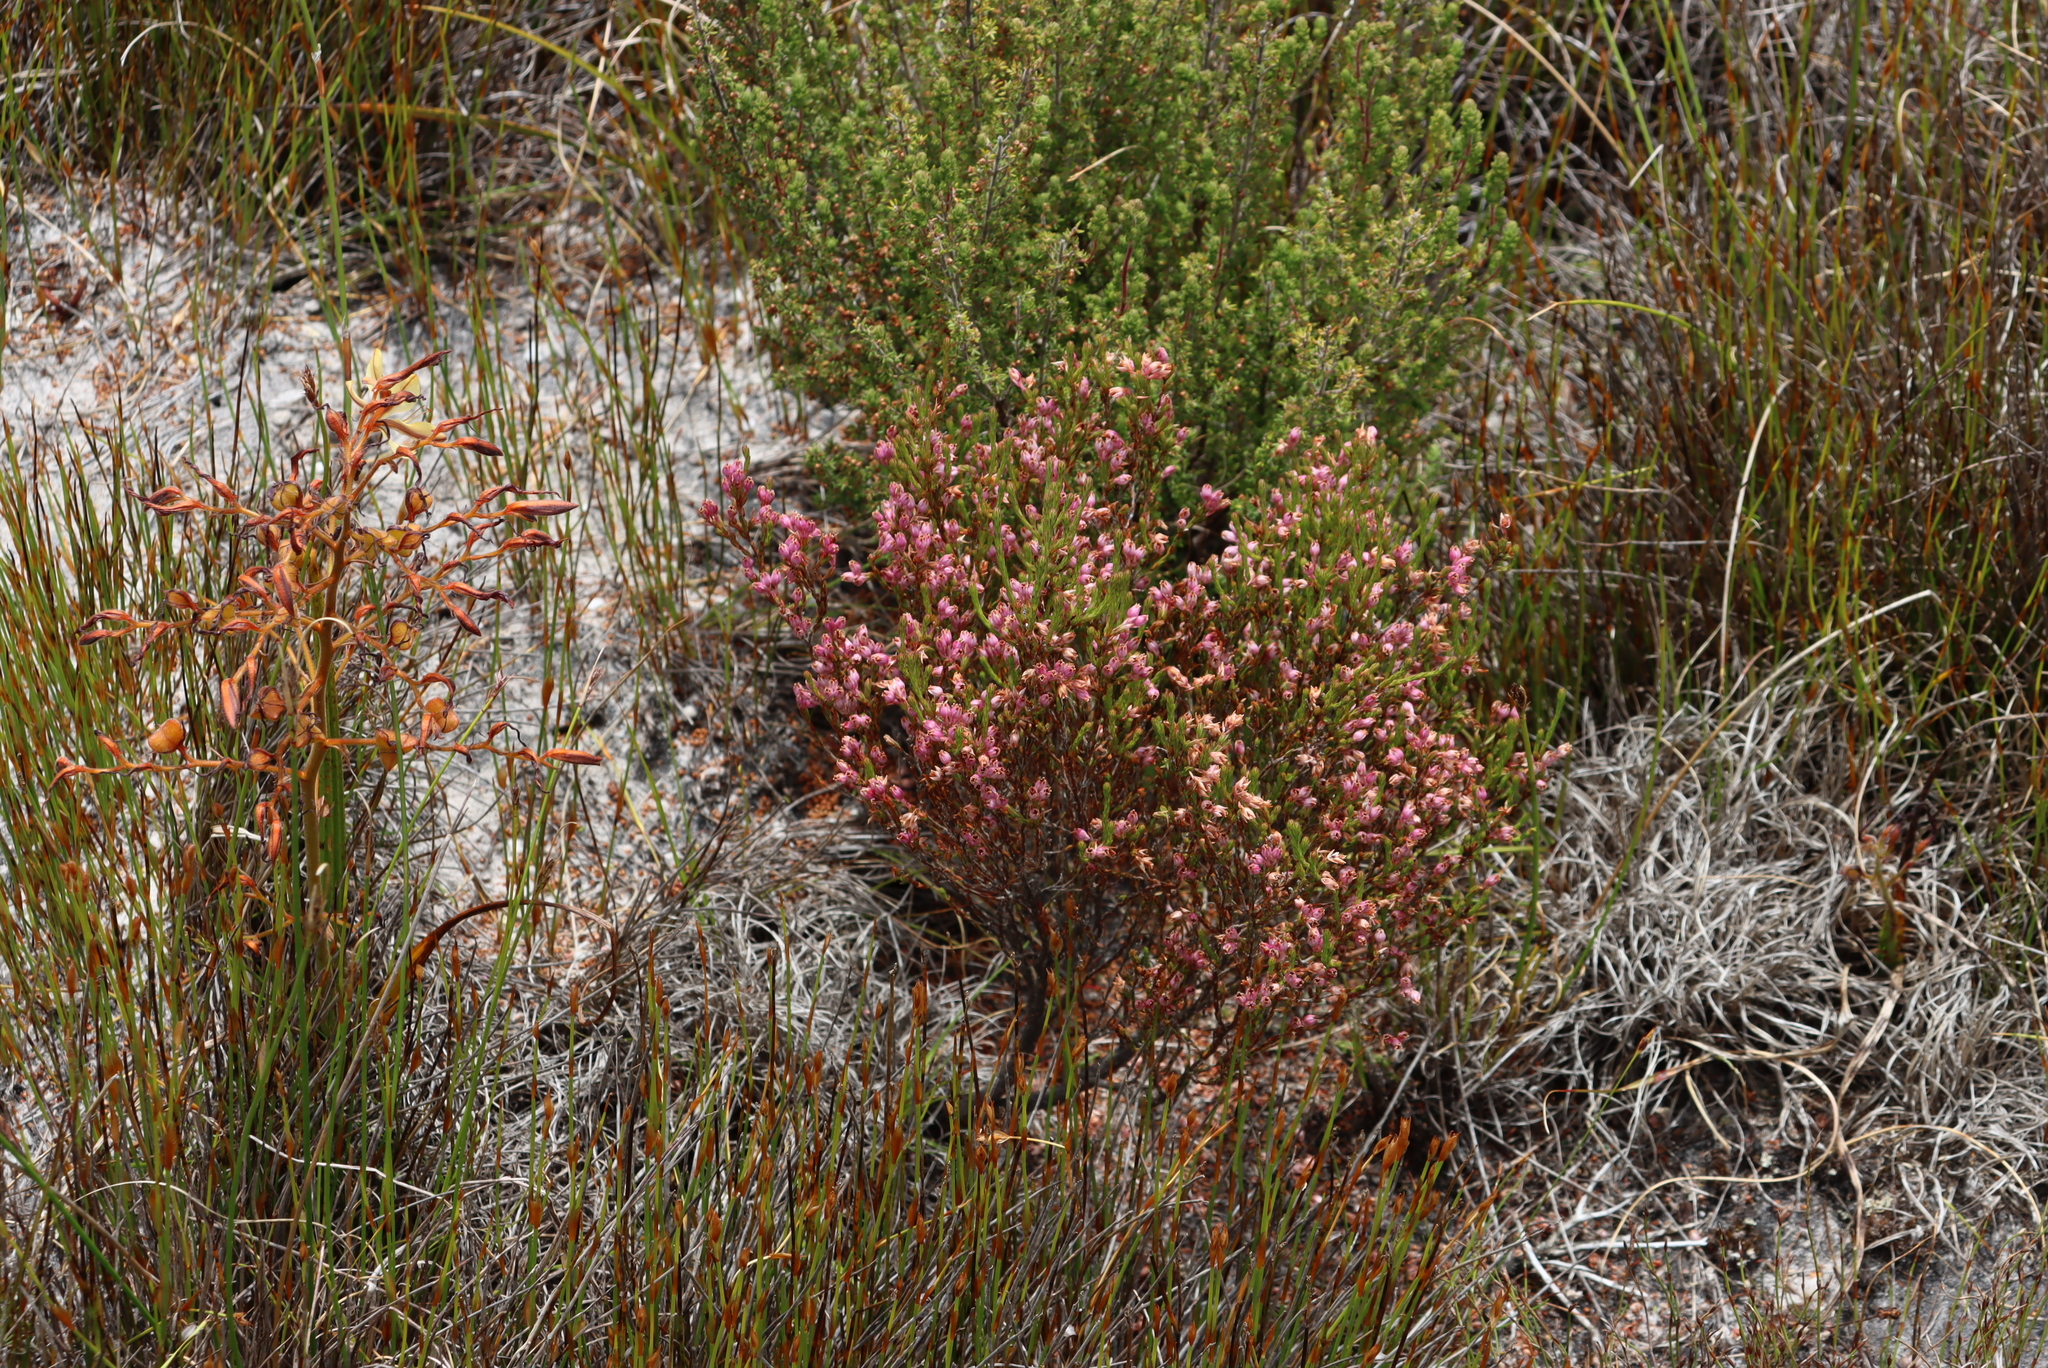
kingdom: Plantae
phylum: Tracheophyta
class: Liliopsida
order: Commelinales
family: Haemodoraceae
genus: Wachendorfia
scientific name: Wachendorfia paniculata
